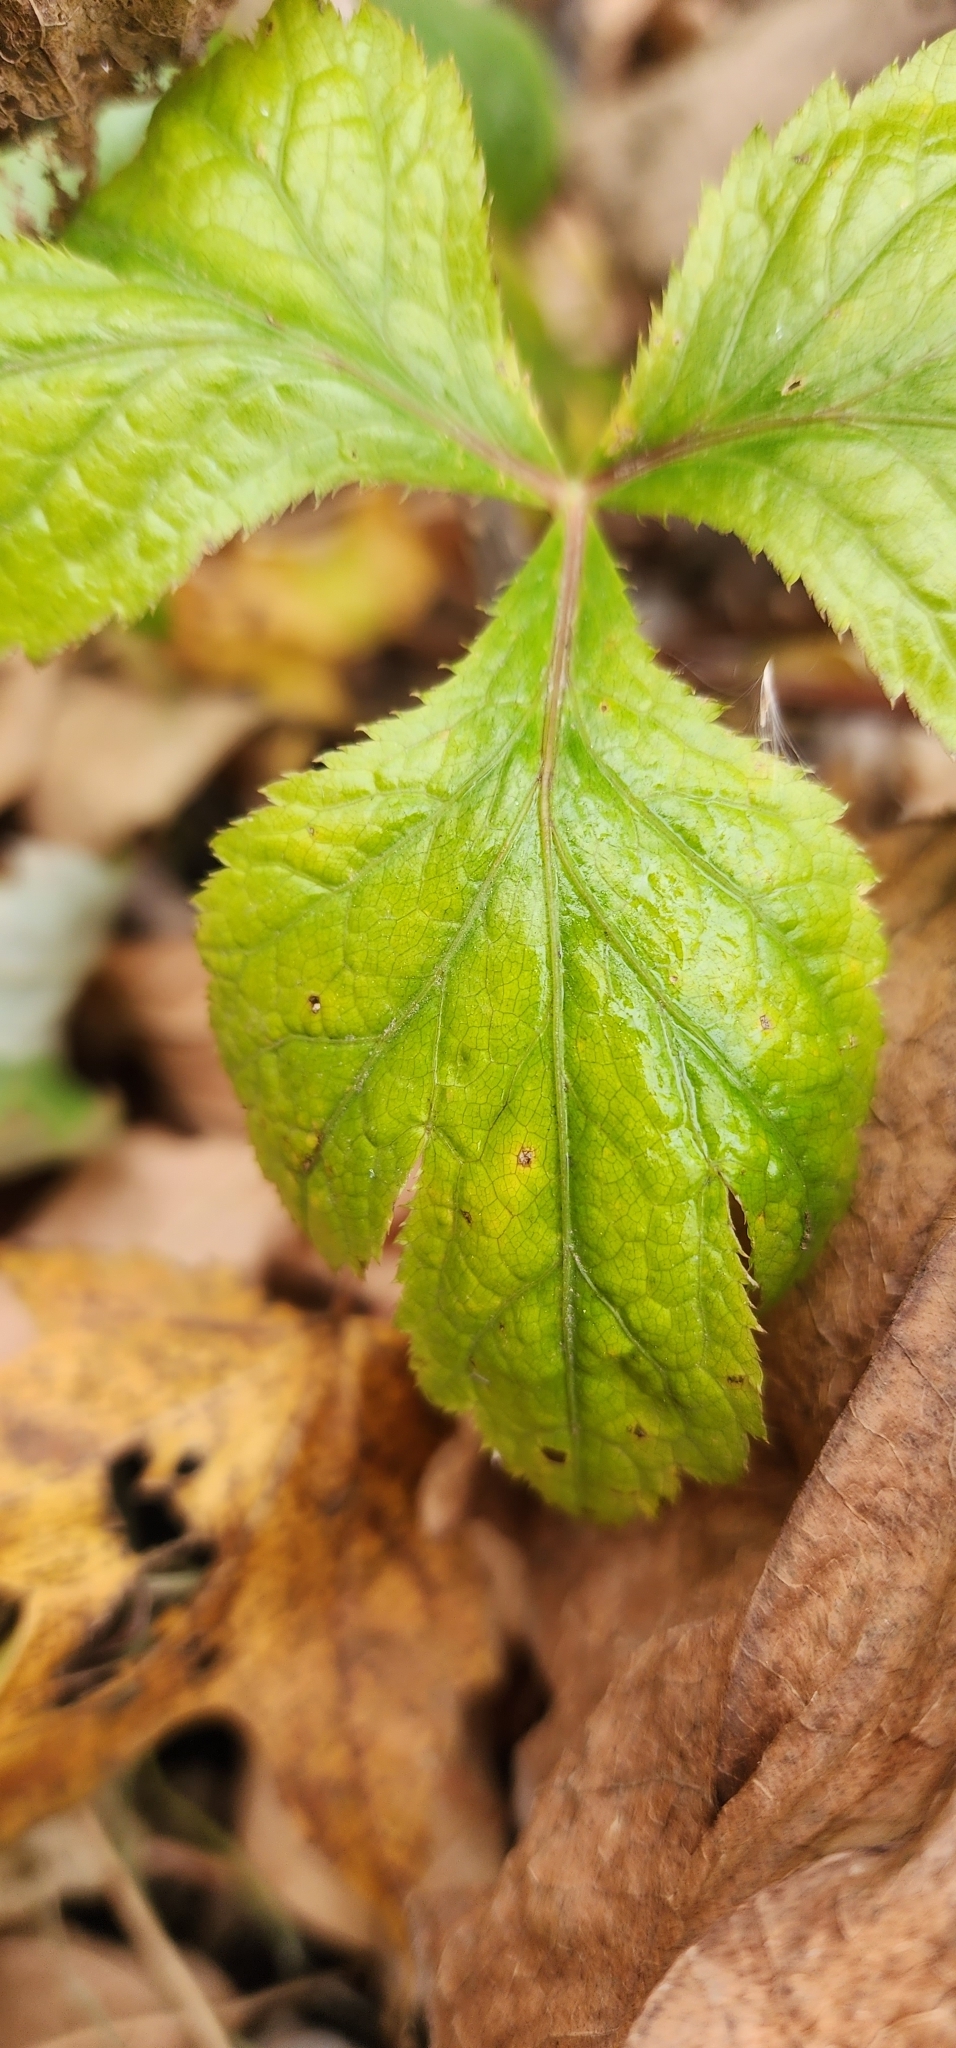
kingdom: Plantae
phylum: Tracheophyta
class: Magnoliopsida
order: Apiales
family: Apiaceae
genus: Cryptotaenia
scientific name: Cryptotaenia canadensis
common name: Honewort
